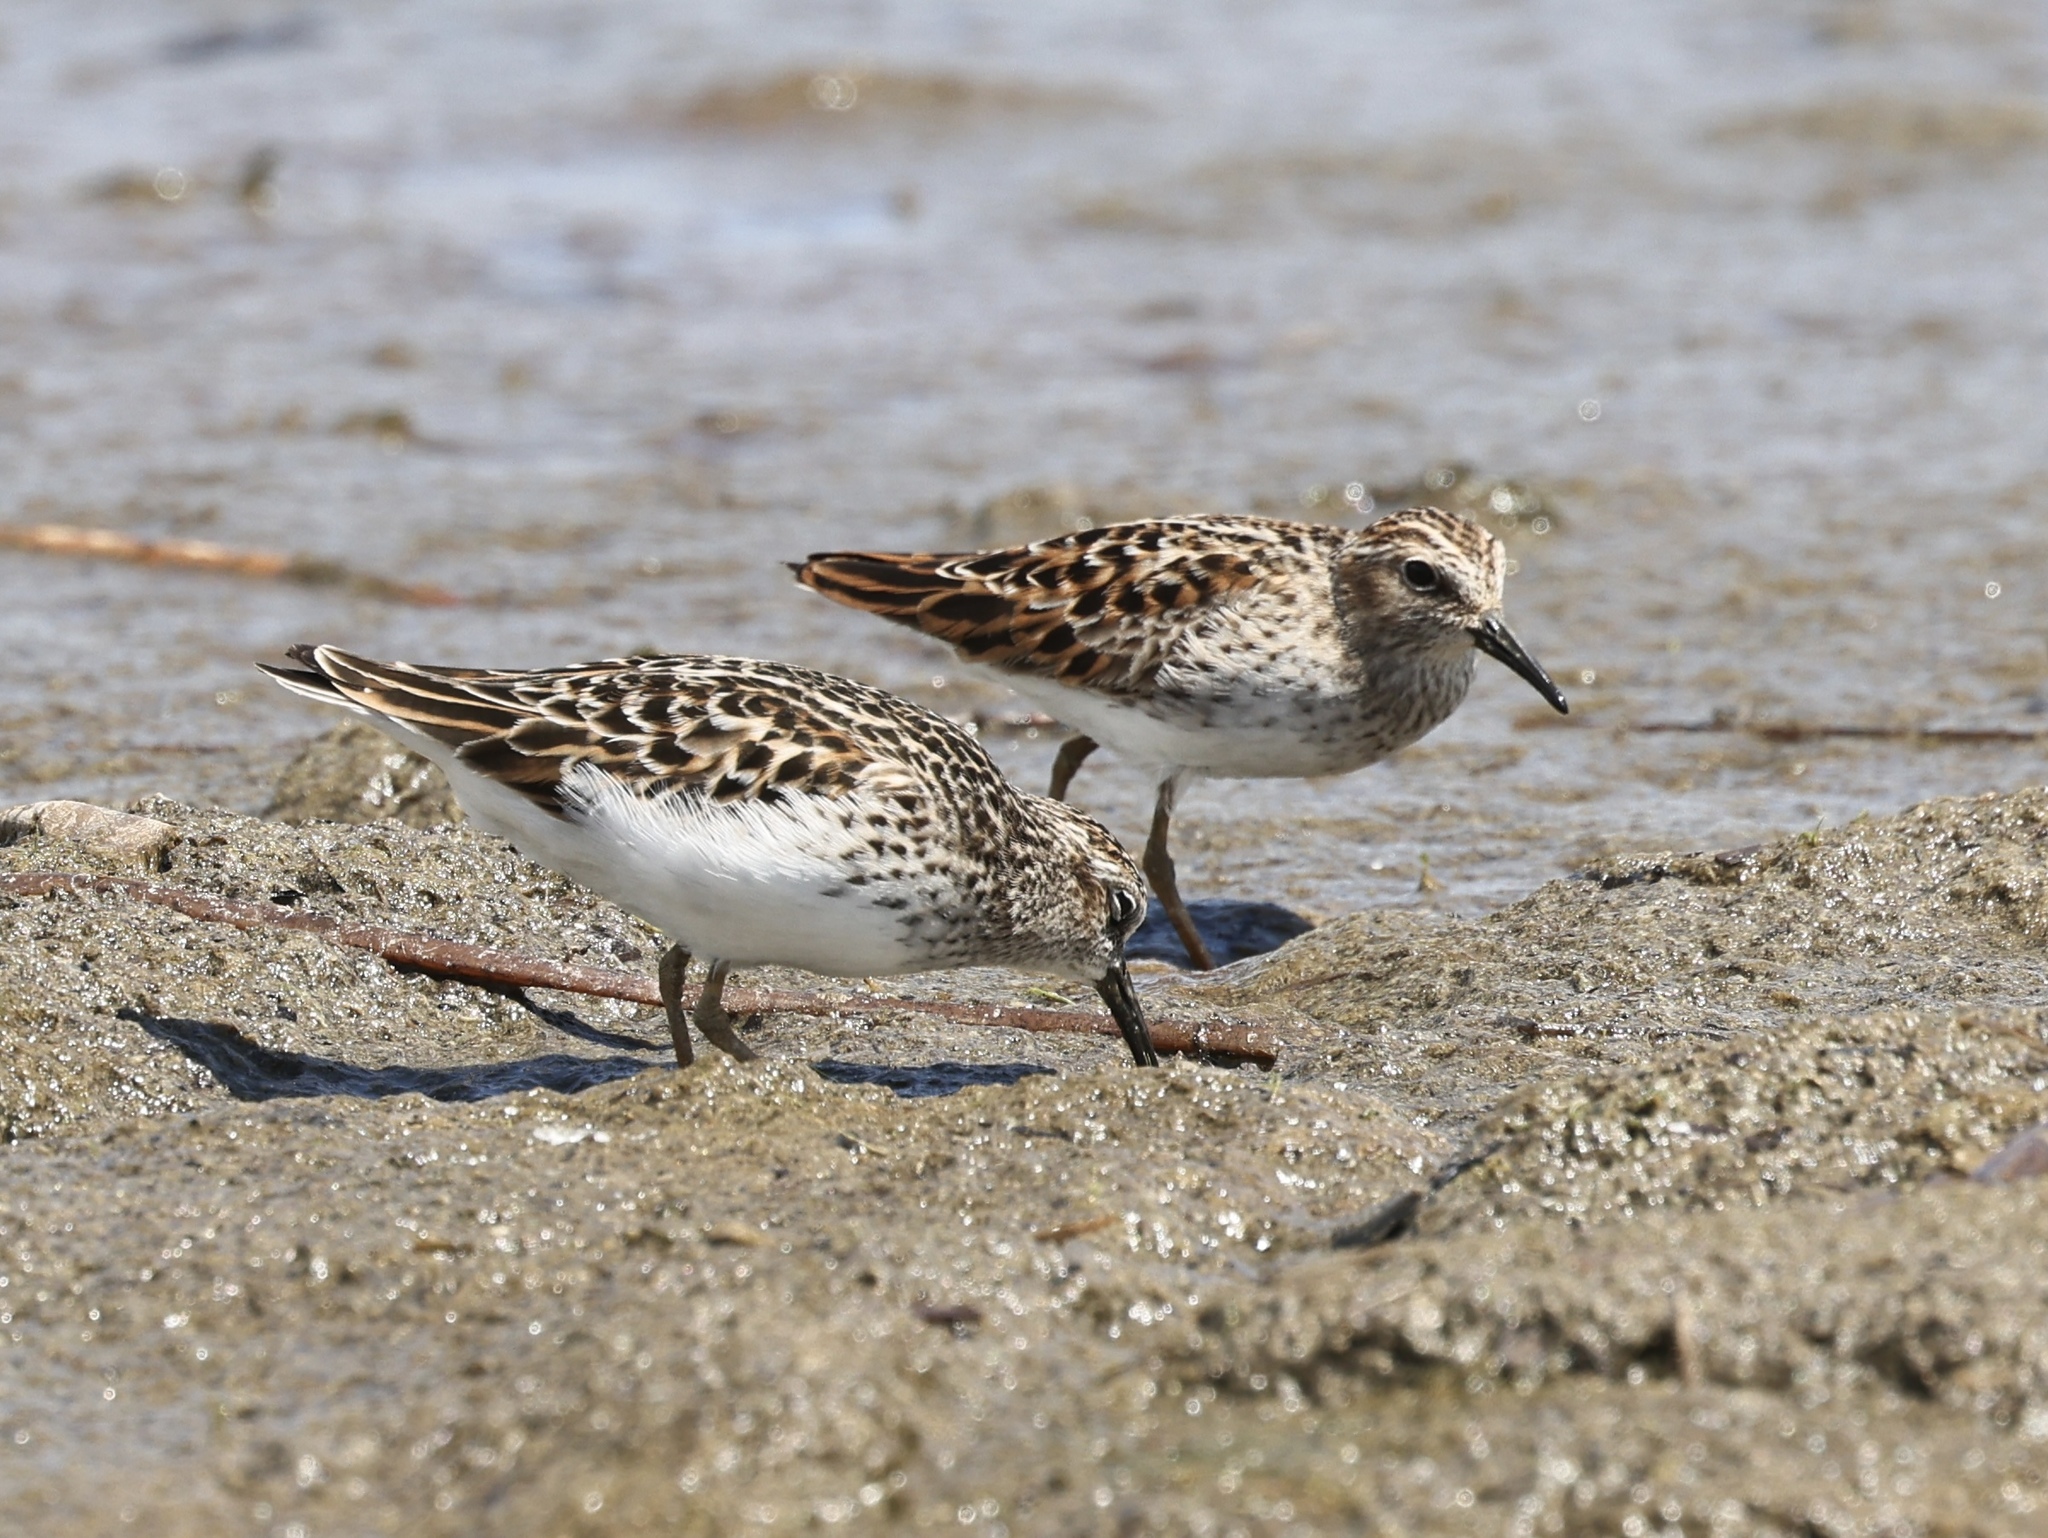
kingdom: Animalia
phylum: Chordata
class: Aves
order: Charadriiformes
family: Scolopacidae
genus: Calidris
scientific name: Calidris minutilla
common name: Least sandpiper
